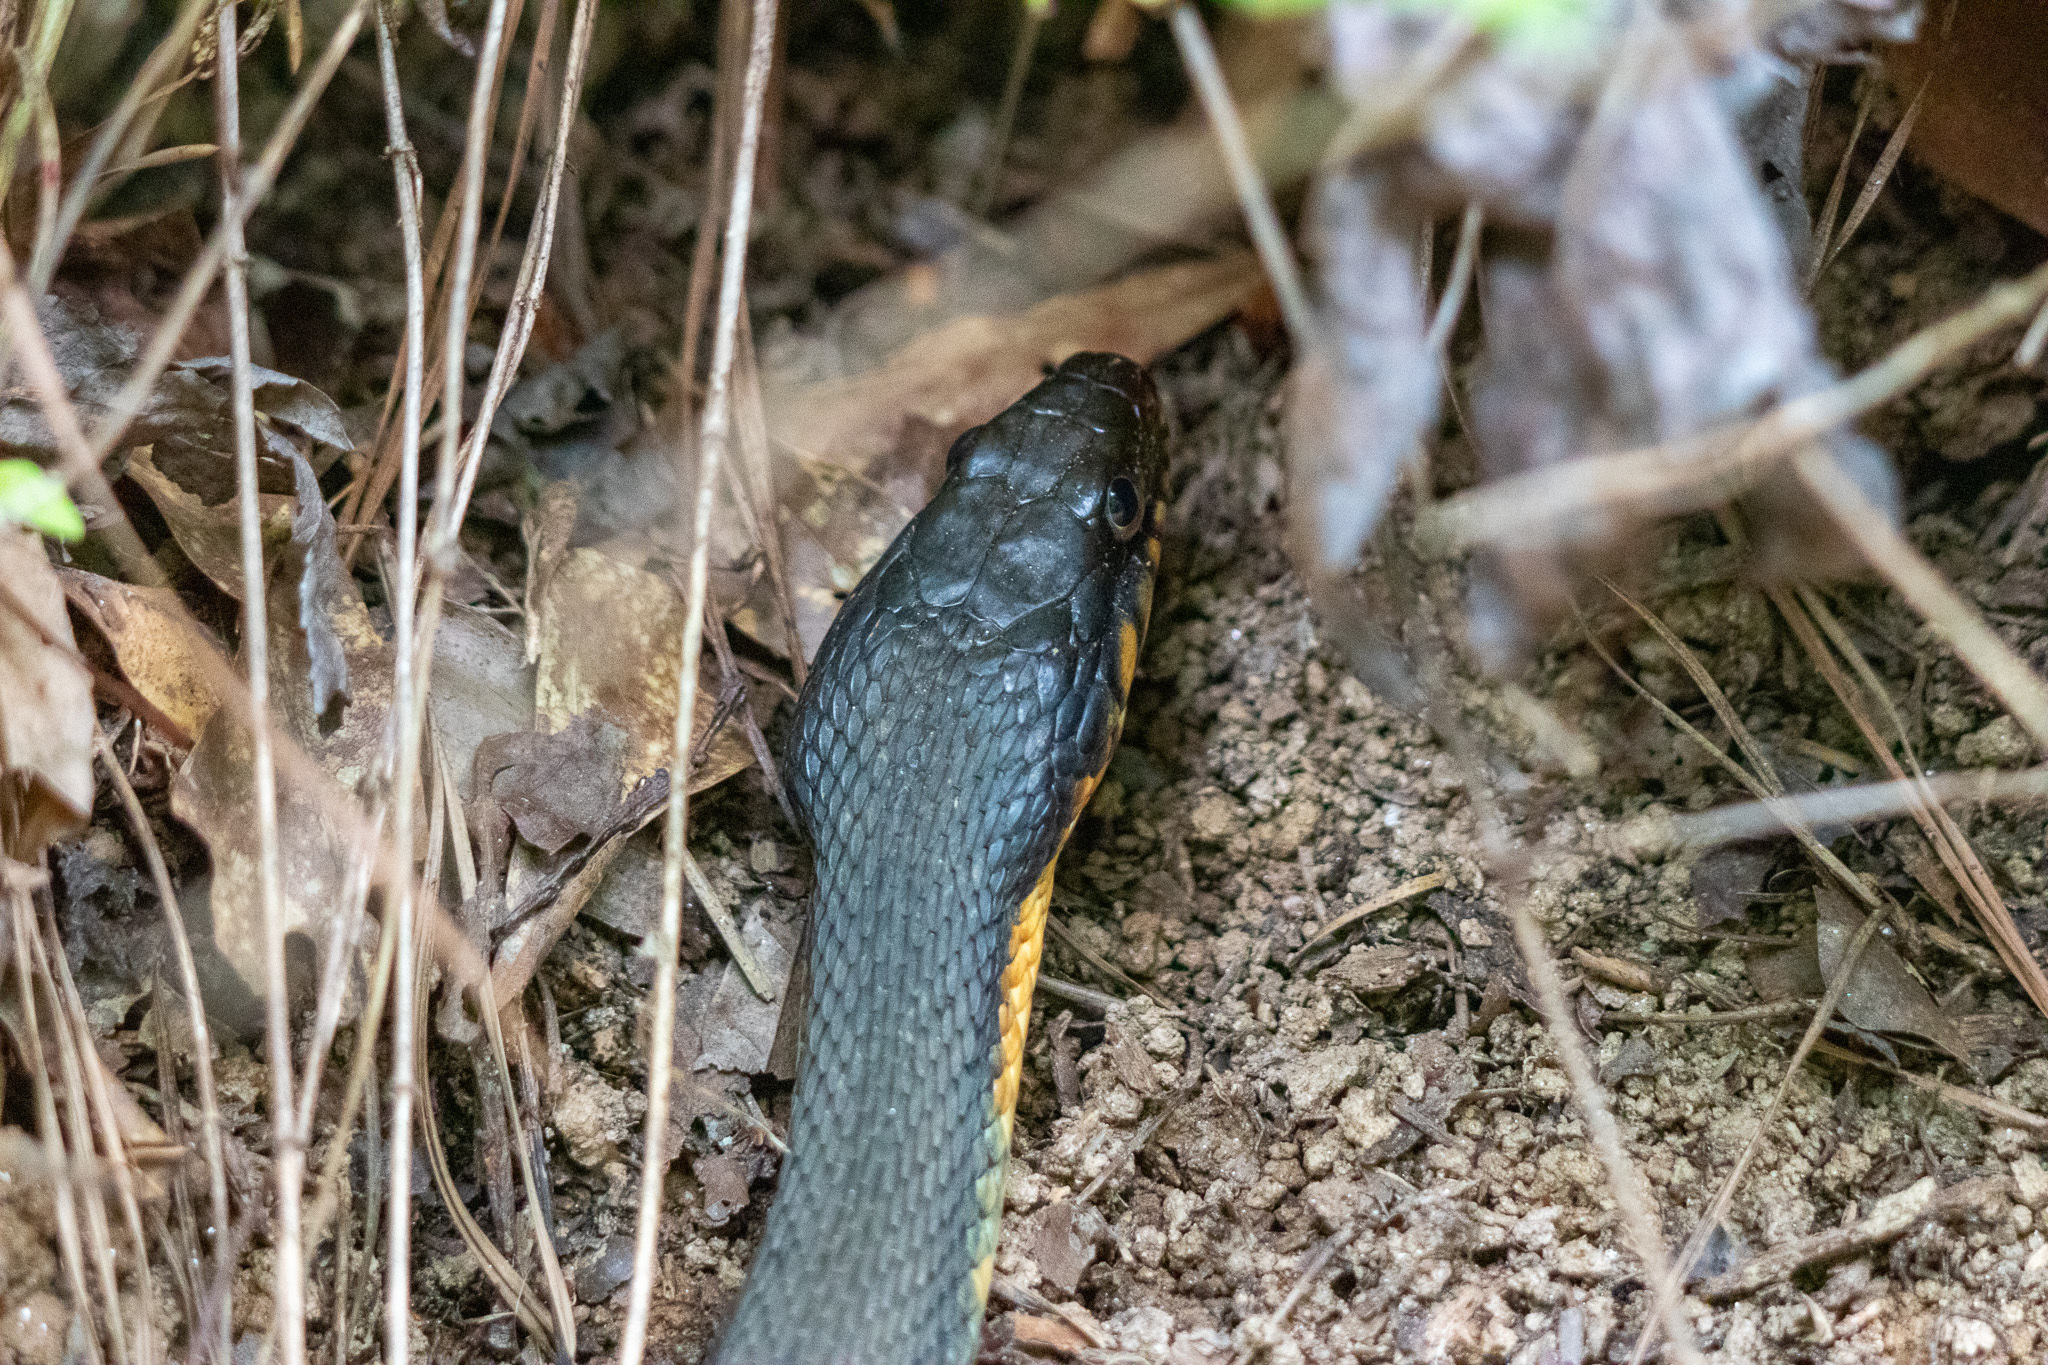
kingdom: Animalia
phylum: Chordata
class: Squamata
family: Colubridae
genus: Nerodia
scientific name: Nerodia erythrogaster
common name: Plainbelly water snake
